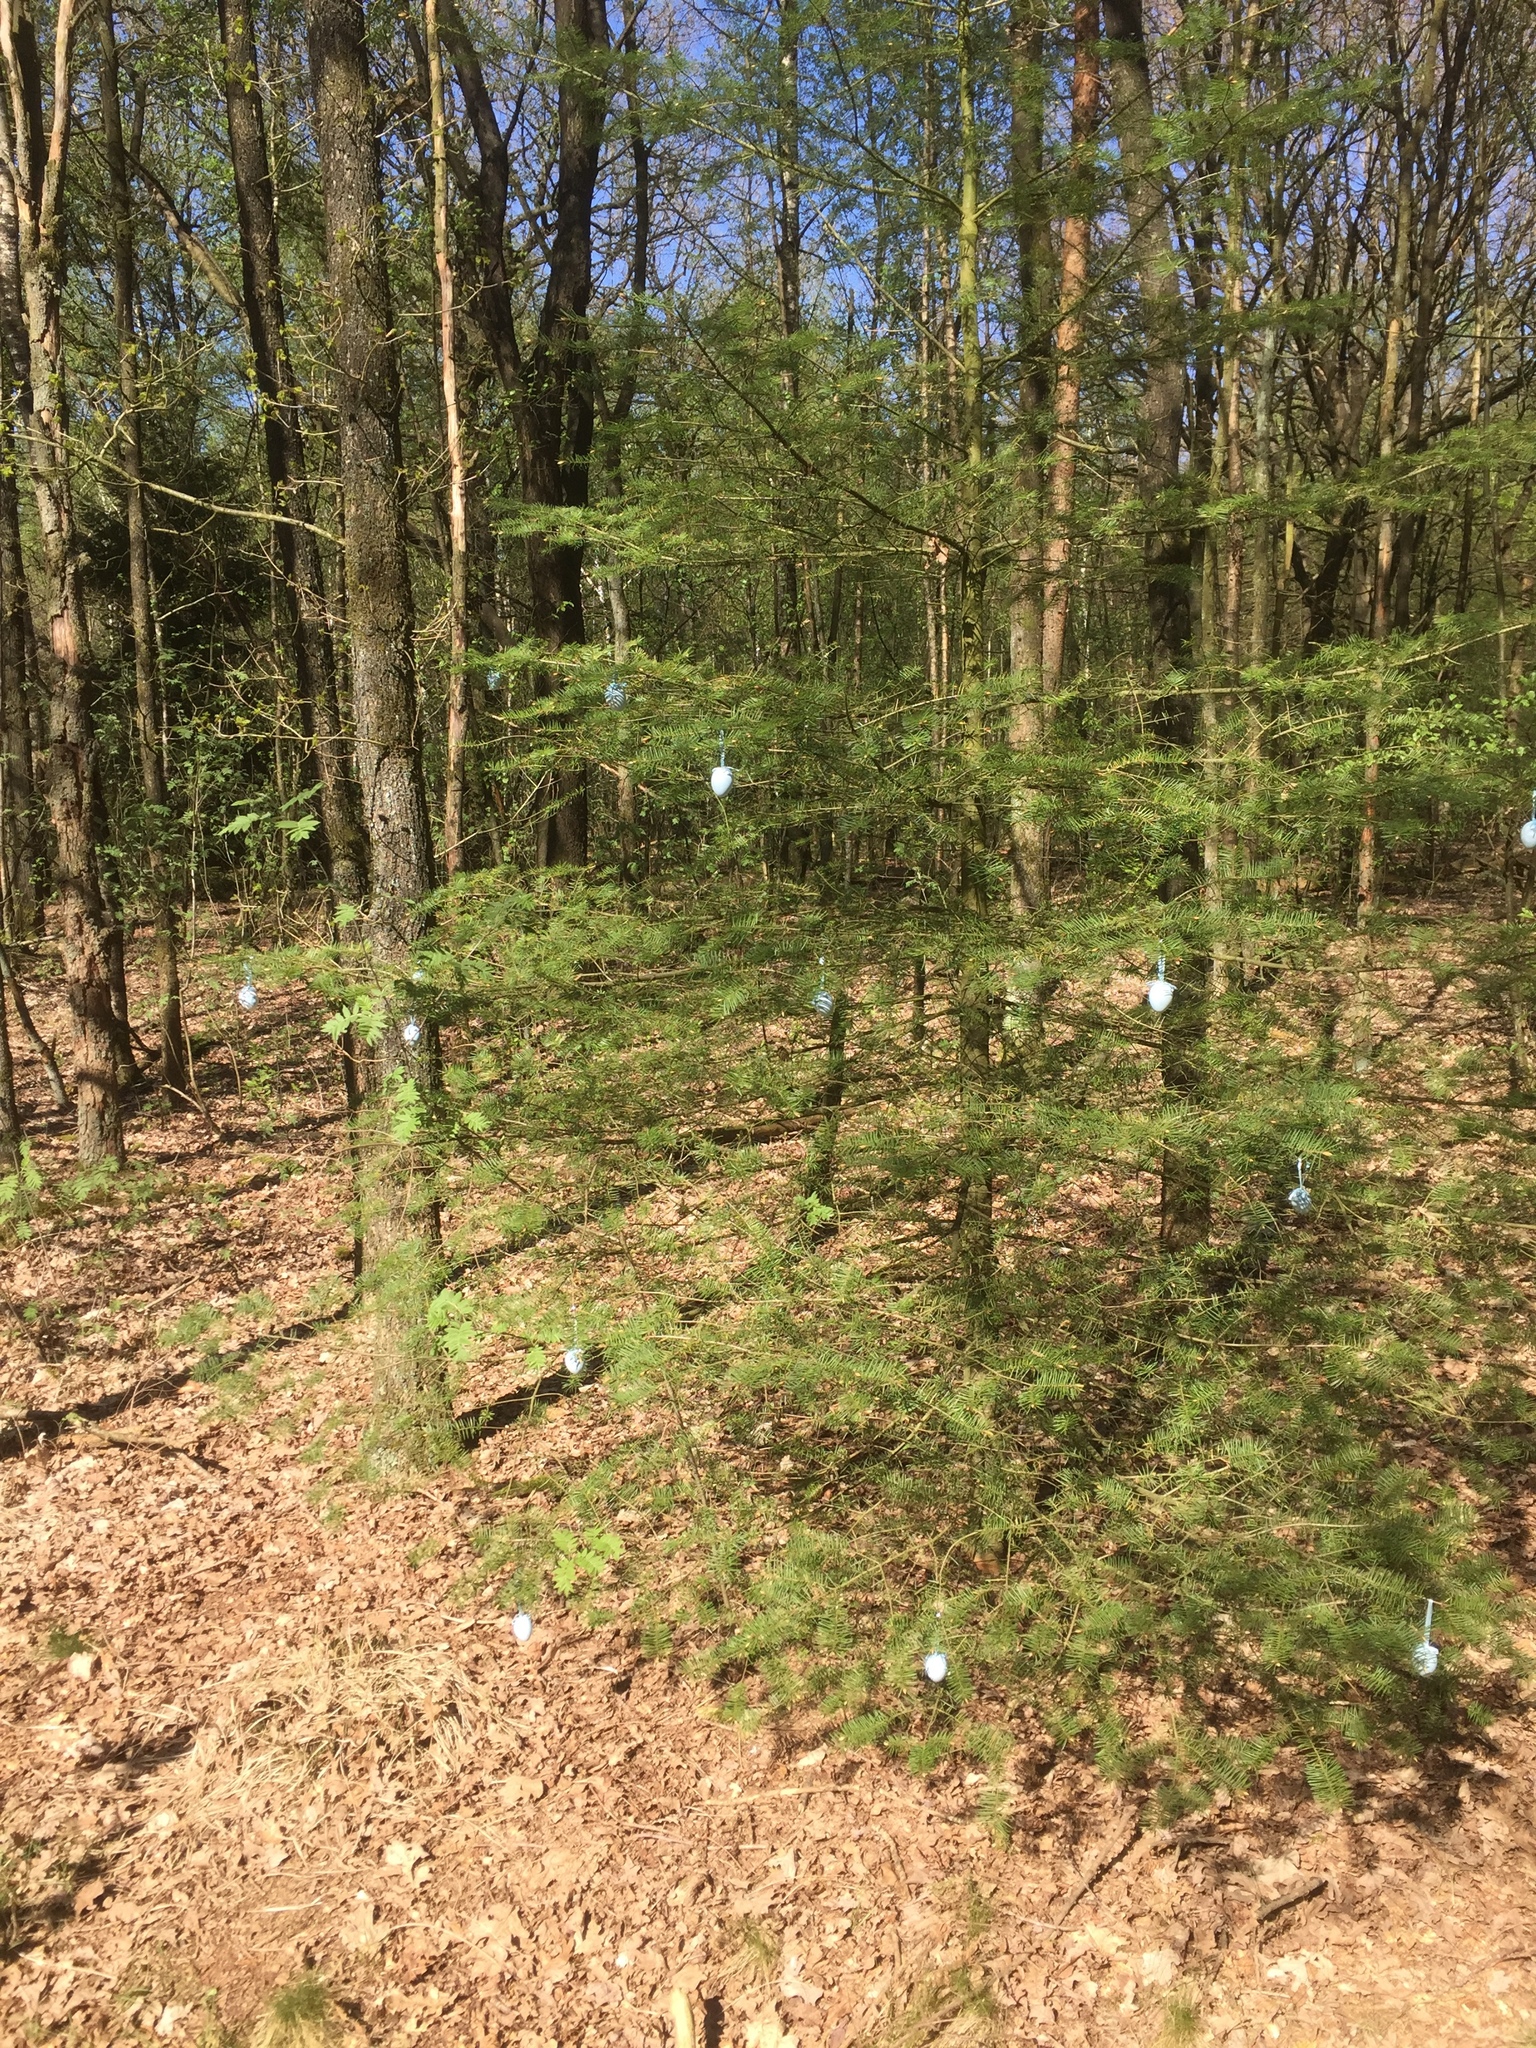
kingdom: Plantae
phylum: Tracheophyta
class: Pinopsida
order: Pinales
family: Pinaceae
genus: Pseudotsuga
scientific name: Pseudotsuga menziesii
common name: Douglas fir
